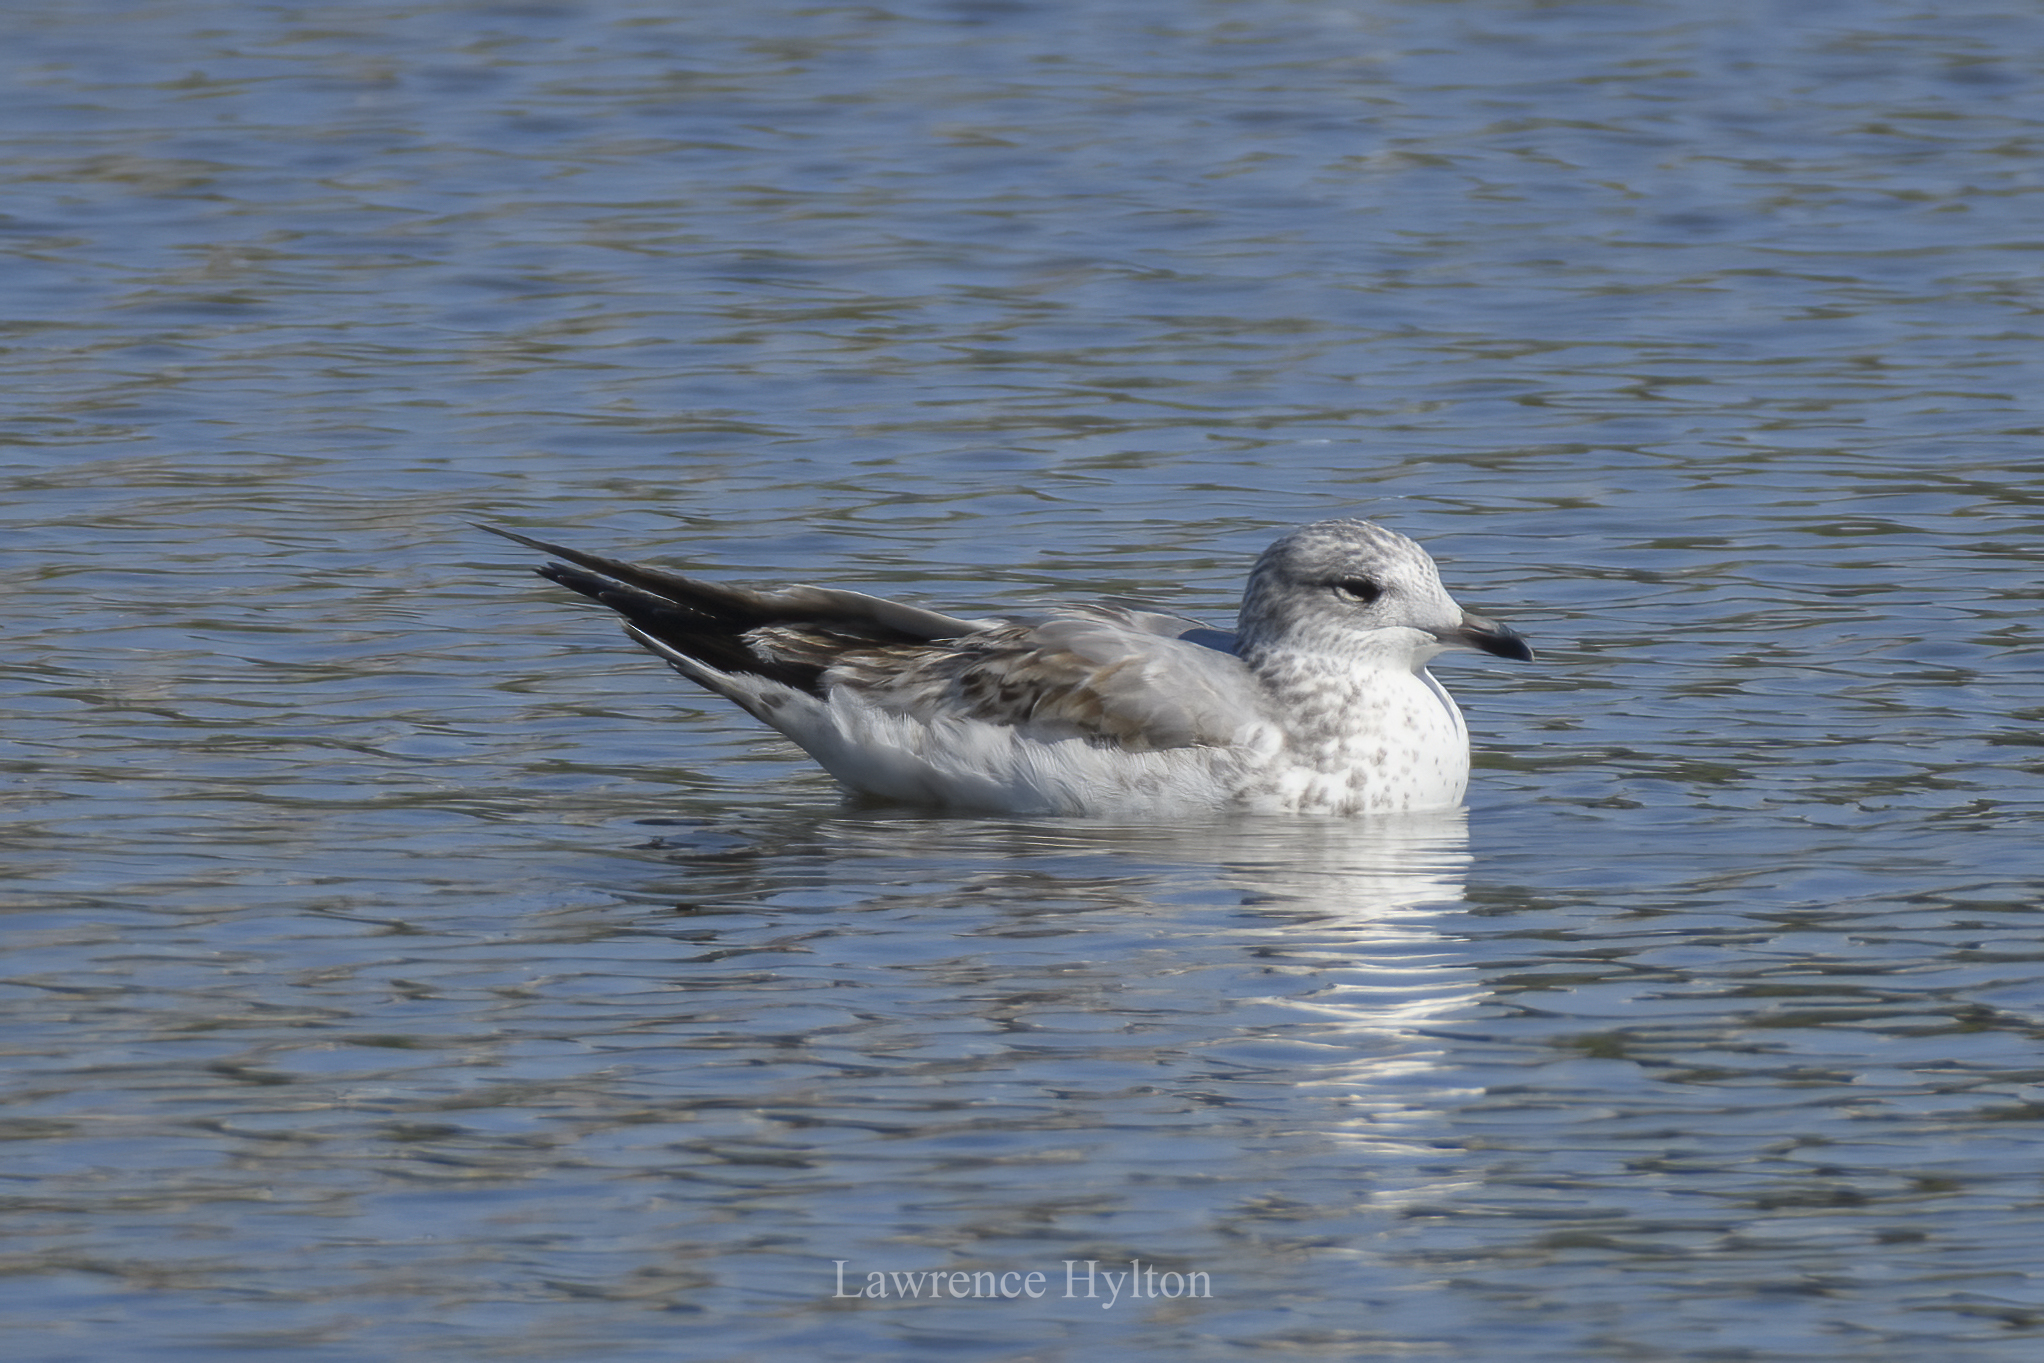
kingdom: Animalia
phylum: Chordata
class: Aves
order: Charadriiformes
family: Laridae
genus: Larus
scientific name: Larus canus
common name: Mew gull
